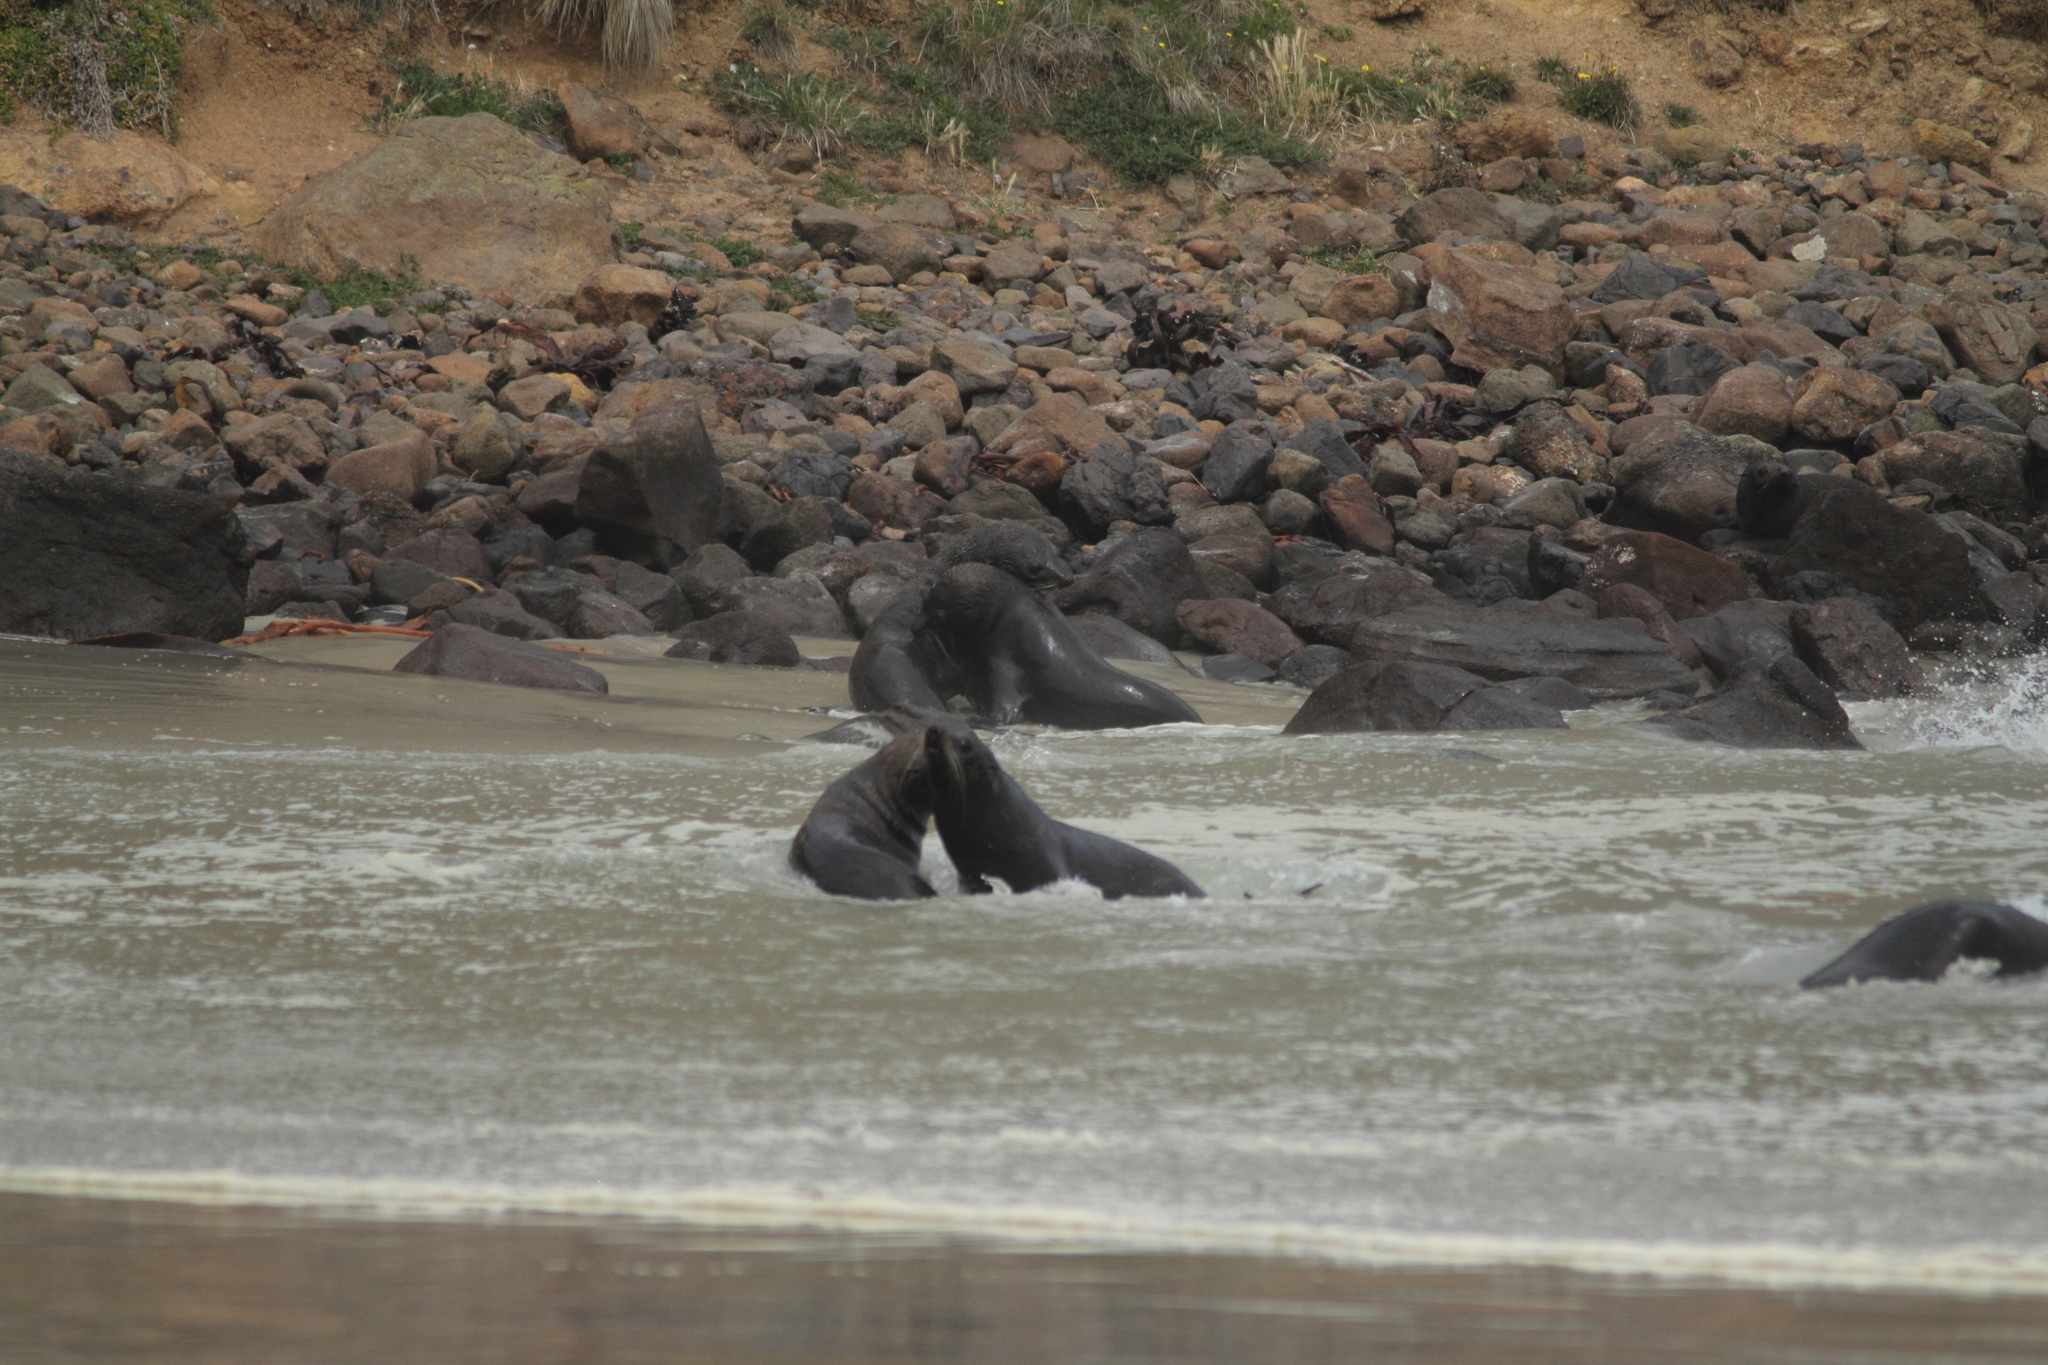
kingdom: Animalia
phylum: Chordata
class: Mammalia
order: Carnivora
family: Otariidae
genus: Arctocephalus
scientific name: Arctocephalus forsteri
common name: New zealand fur seal
